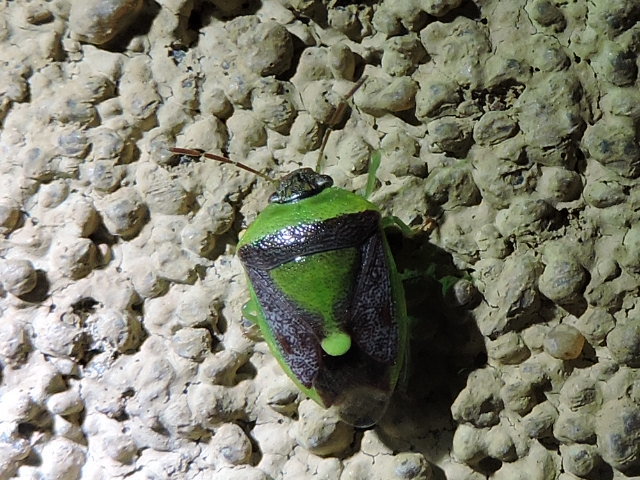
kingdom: Animalia
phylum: Arthropoda
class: Insecta
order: Hemiptera
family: Pentatomidae
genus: Banasa
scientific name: Banasa dimidiata
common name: Green burgundy stink bug
